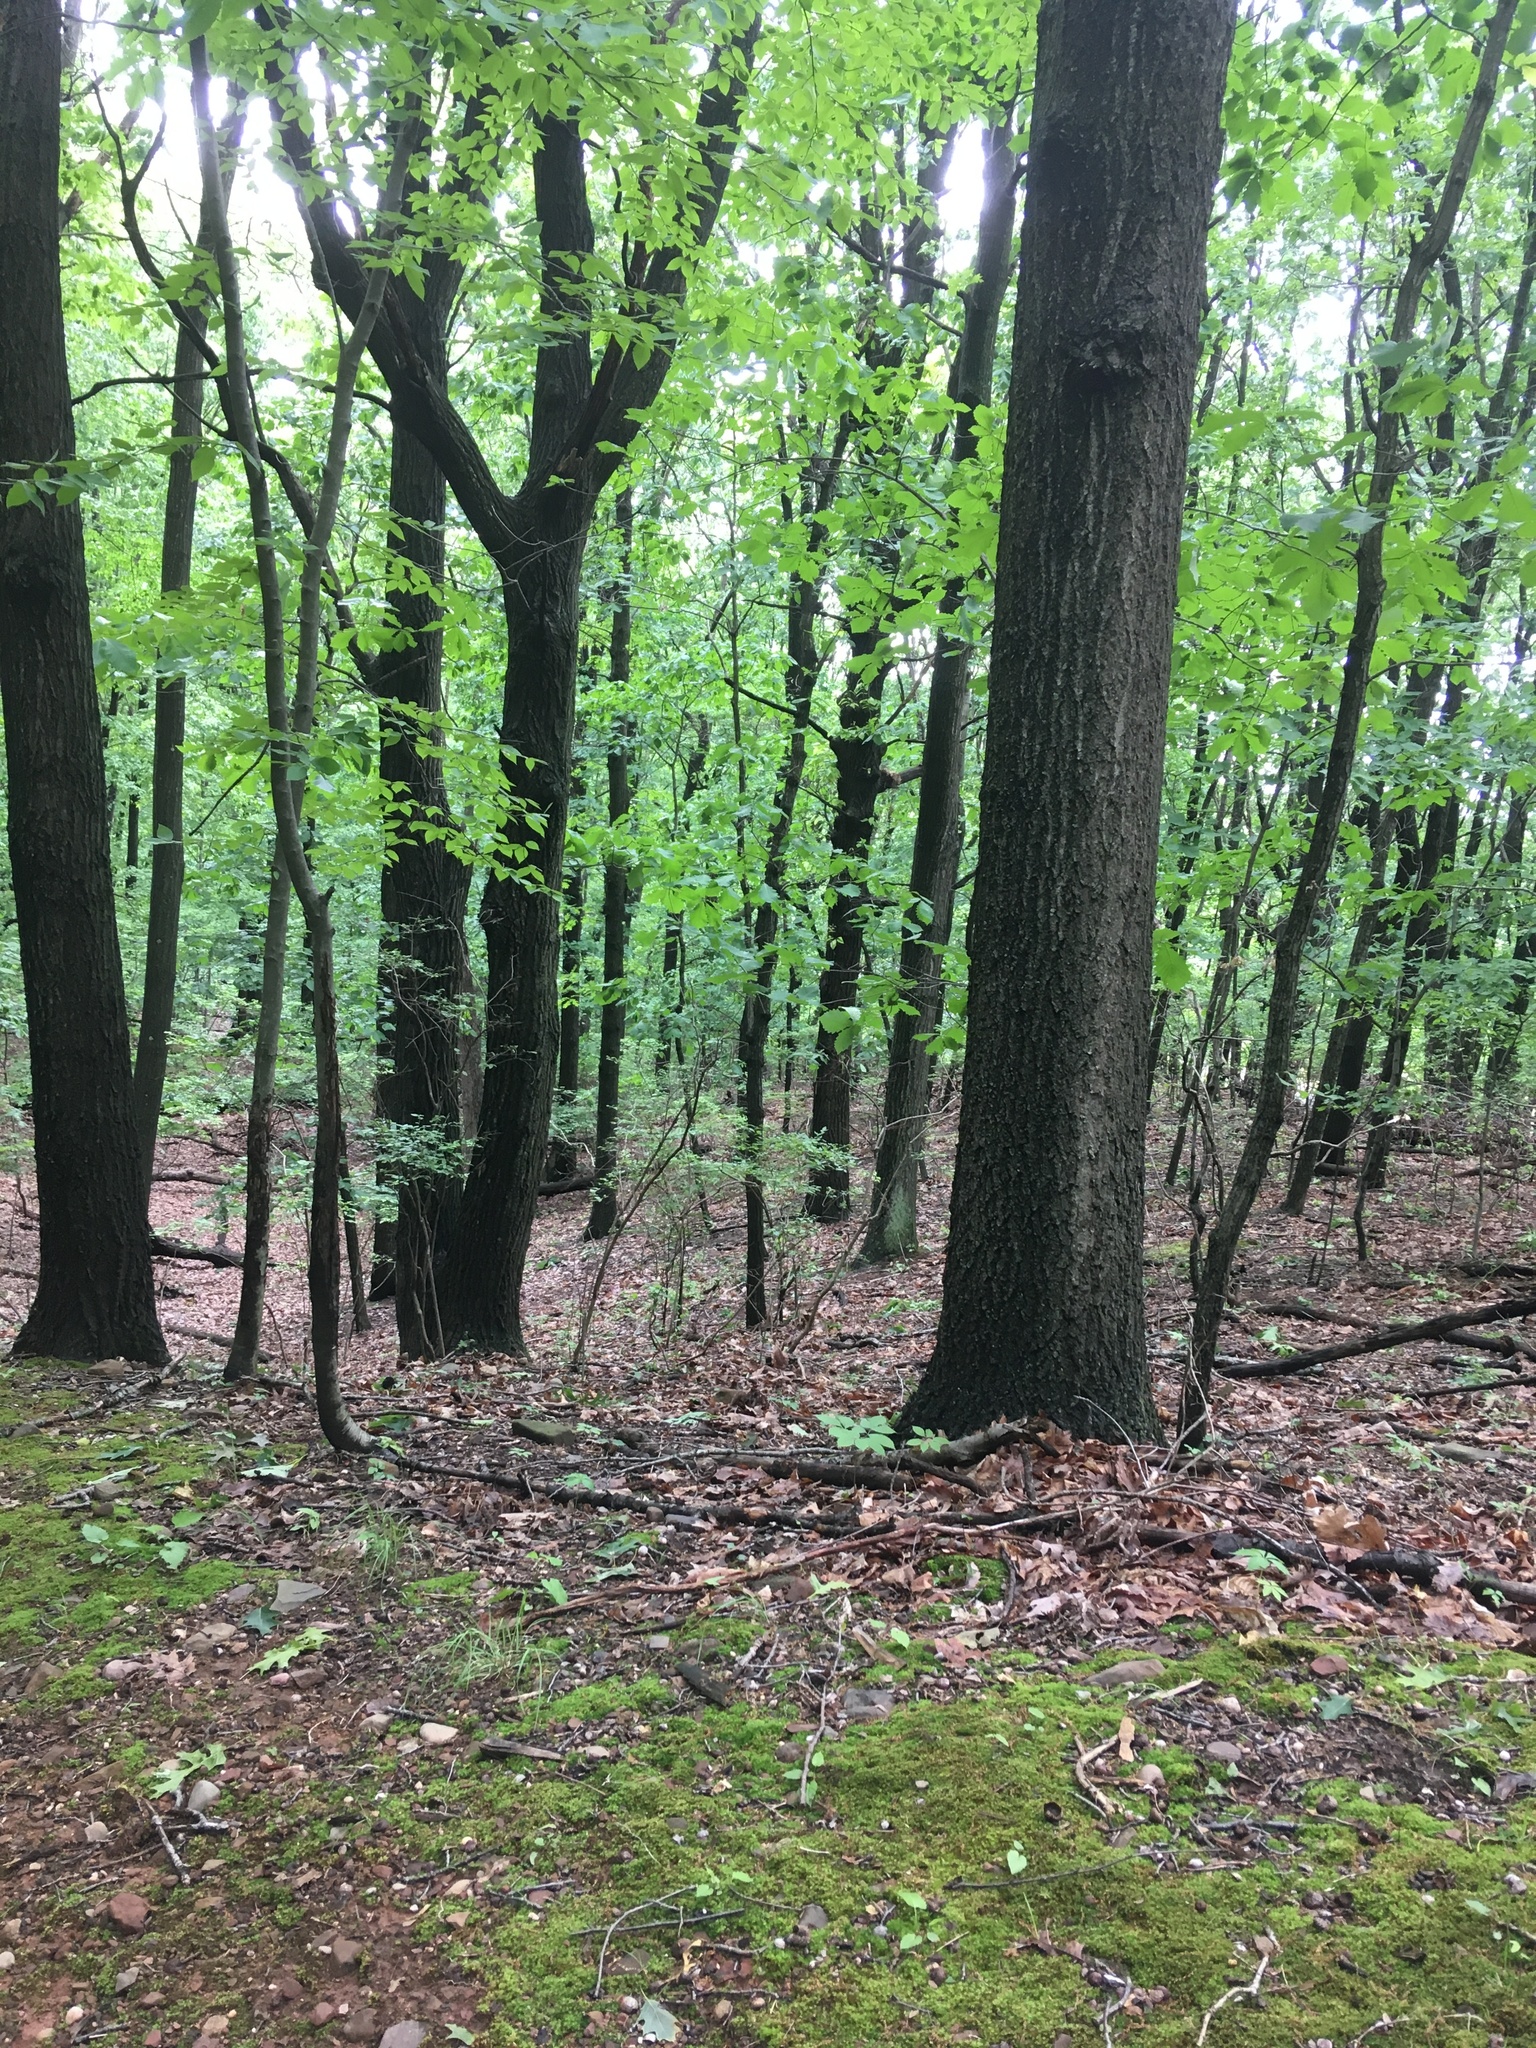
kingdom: Plantae
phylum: Tracheophyta
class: Magnoliopsida
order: Fagales
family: Fagaceae
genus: Quercus
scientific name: Quercus montana
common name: Chestnut oak
